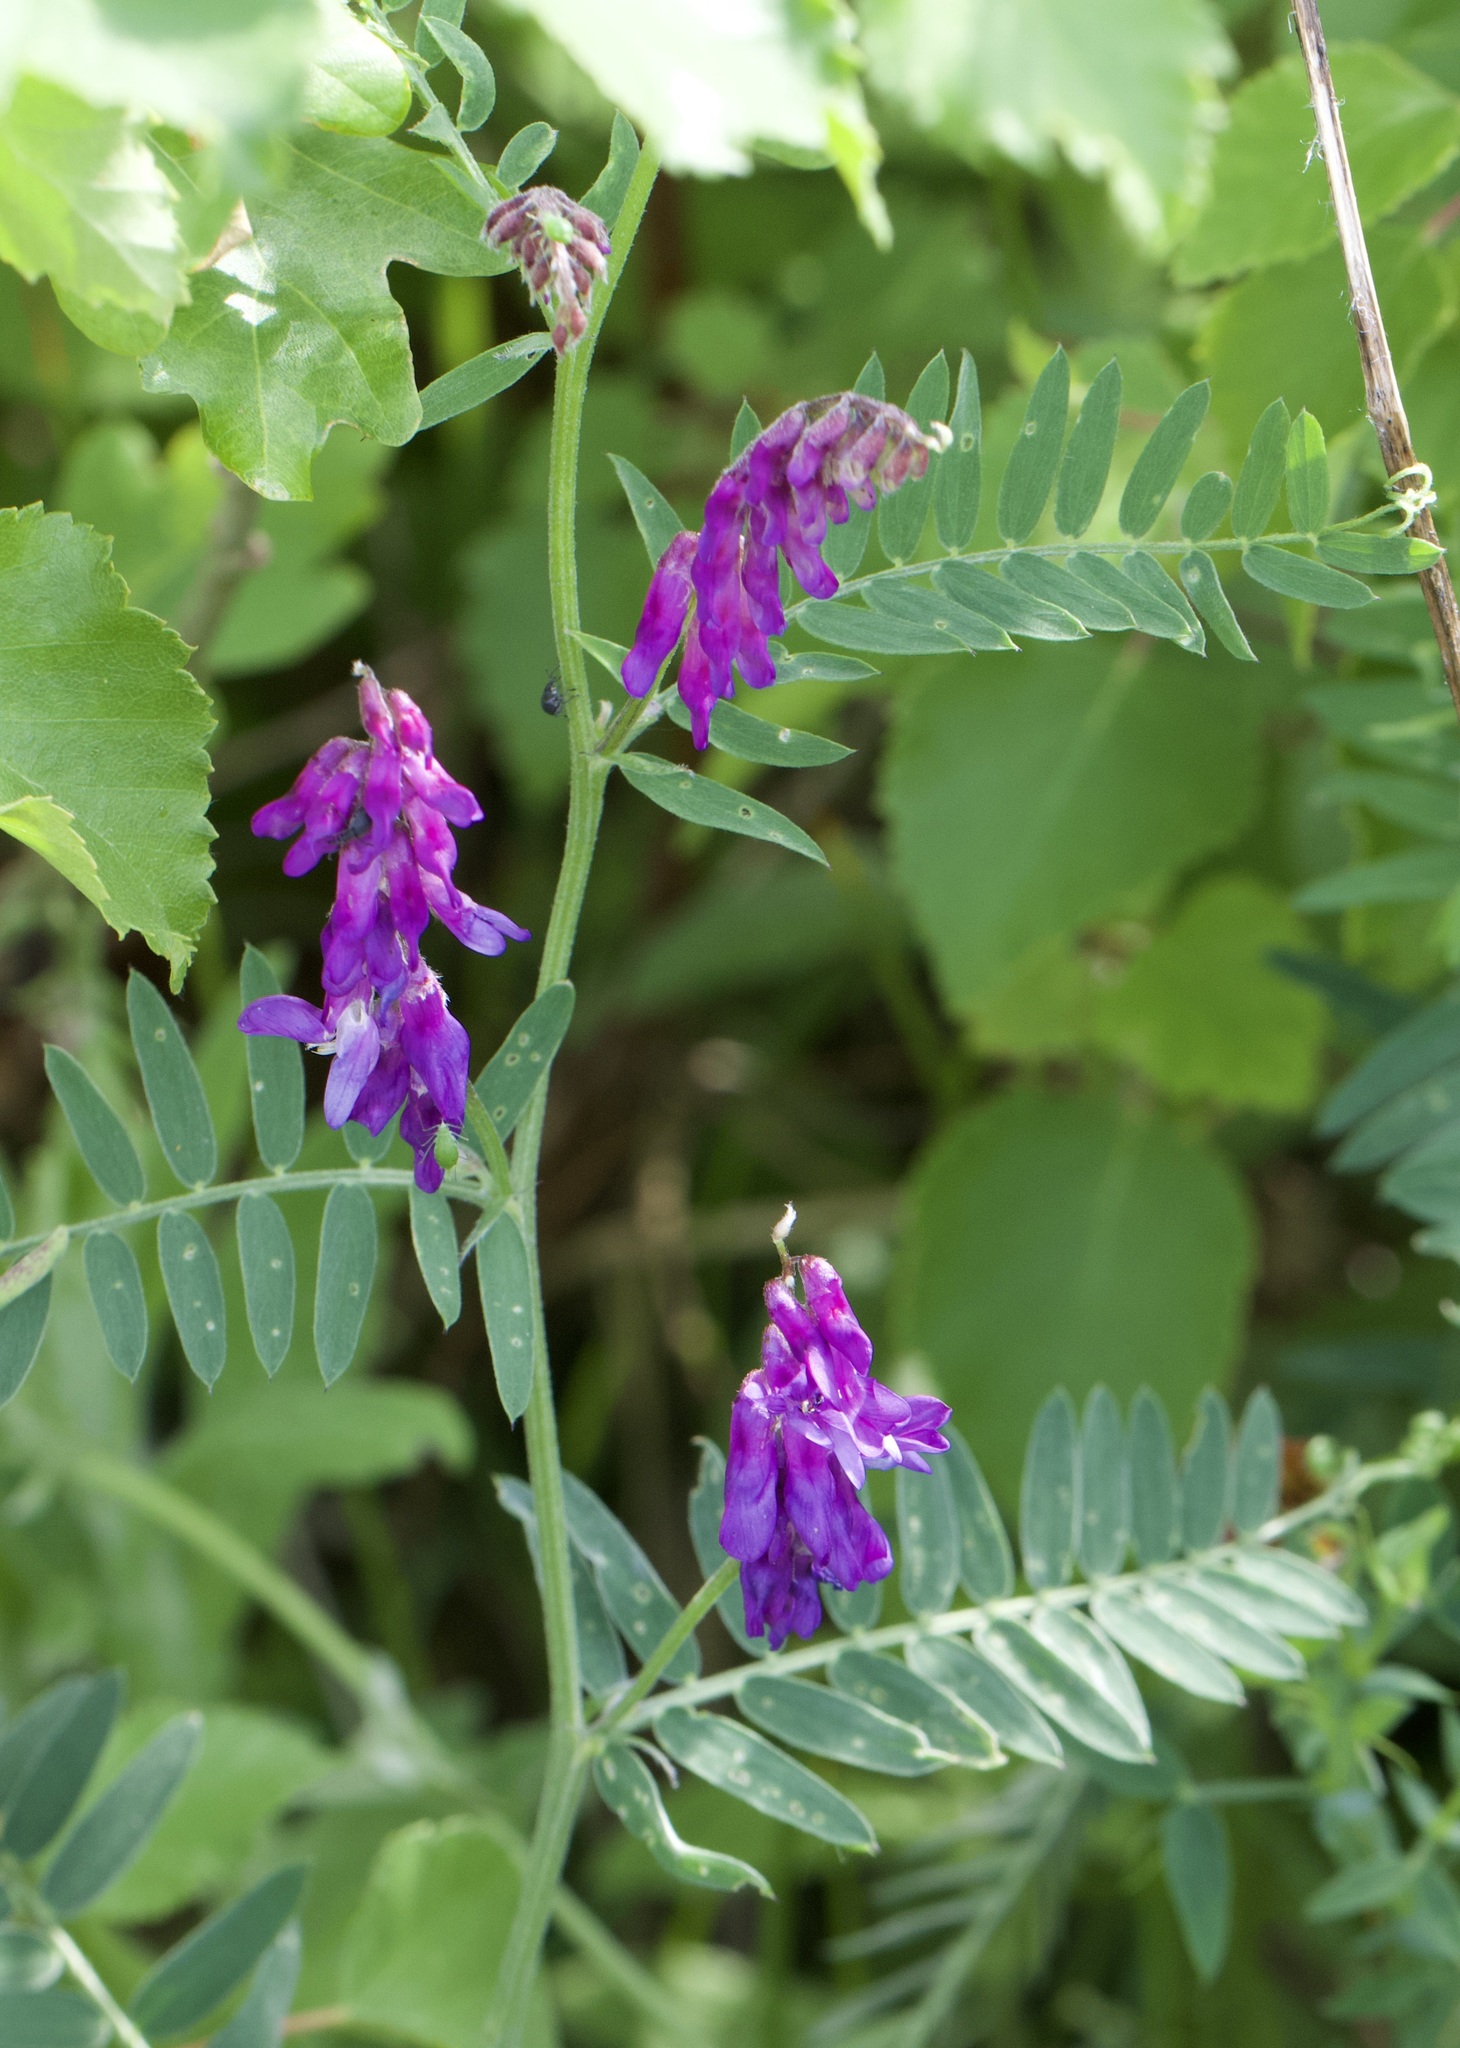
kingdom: Plantae
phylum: Tracheophyta
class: Magnoliopsida
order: Fabales
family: Fabaceae
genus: Vicia
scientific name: Vicia cracca
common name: Bird vetch
